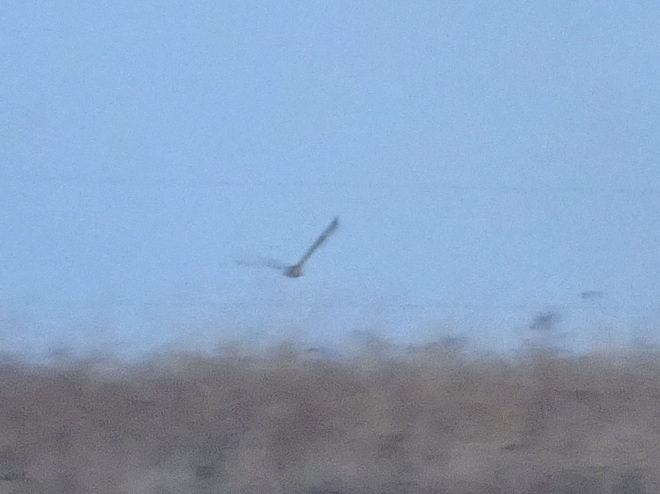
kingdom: Animalia
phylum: Chordata
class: Aves
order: Strigiformes
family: Strigidae
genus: Asio
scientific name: Asio flammeus
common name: Short-eared owl
